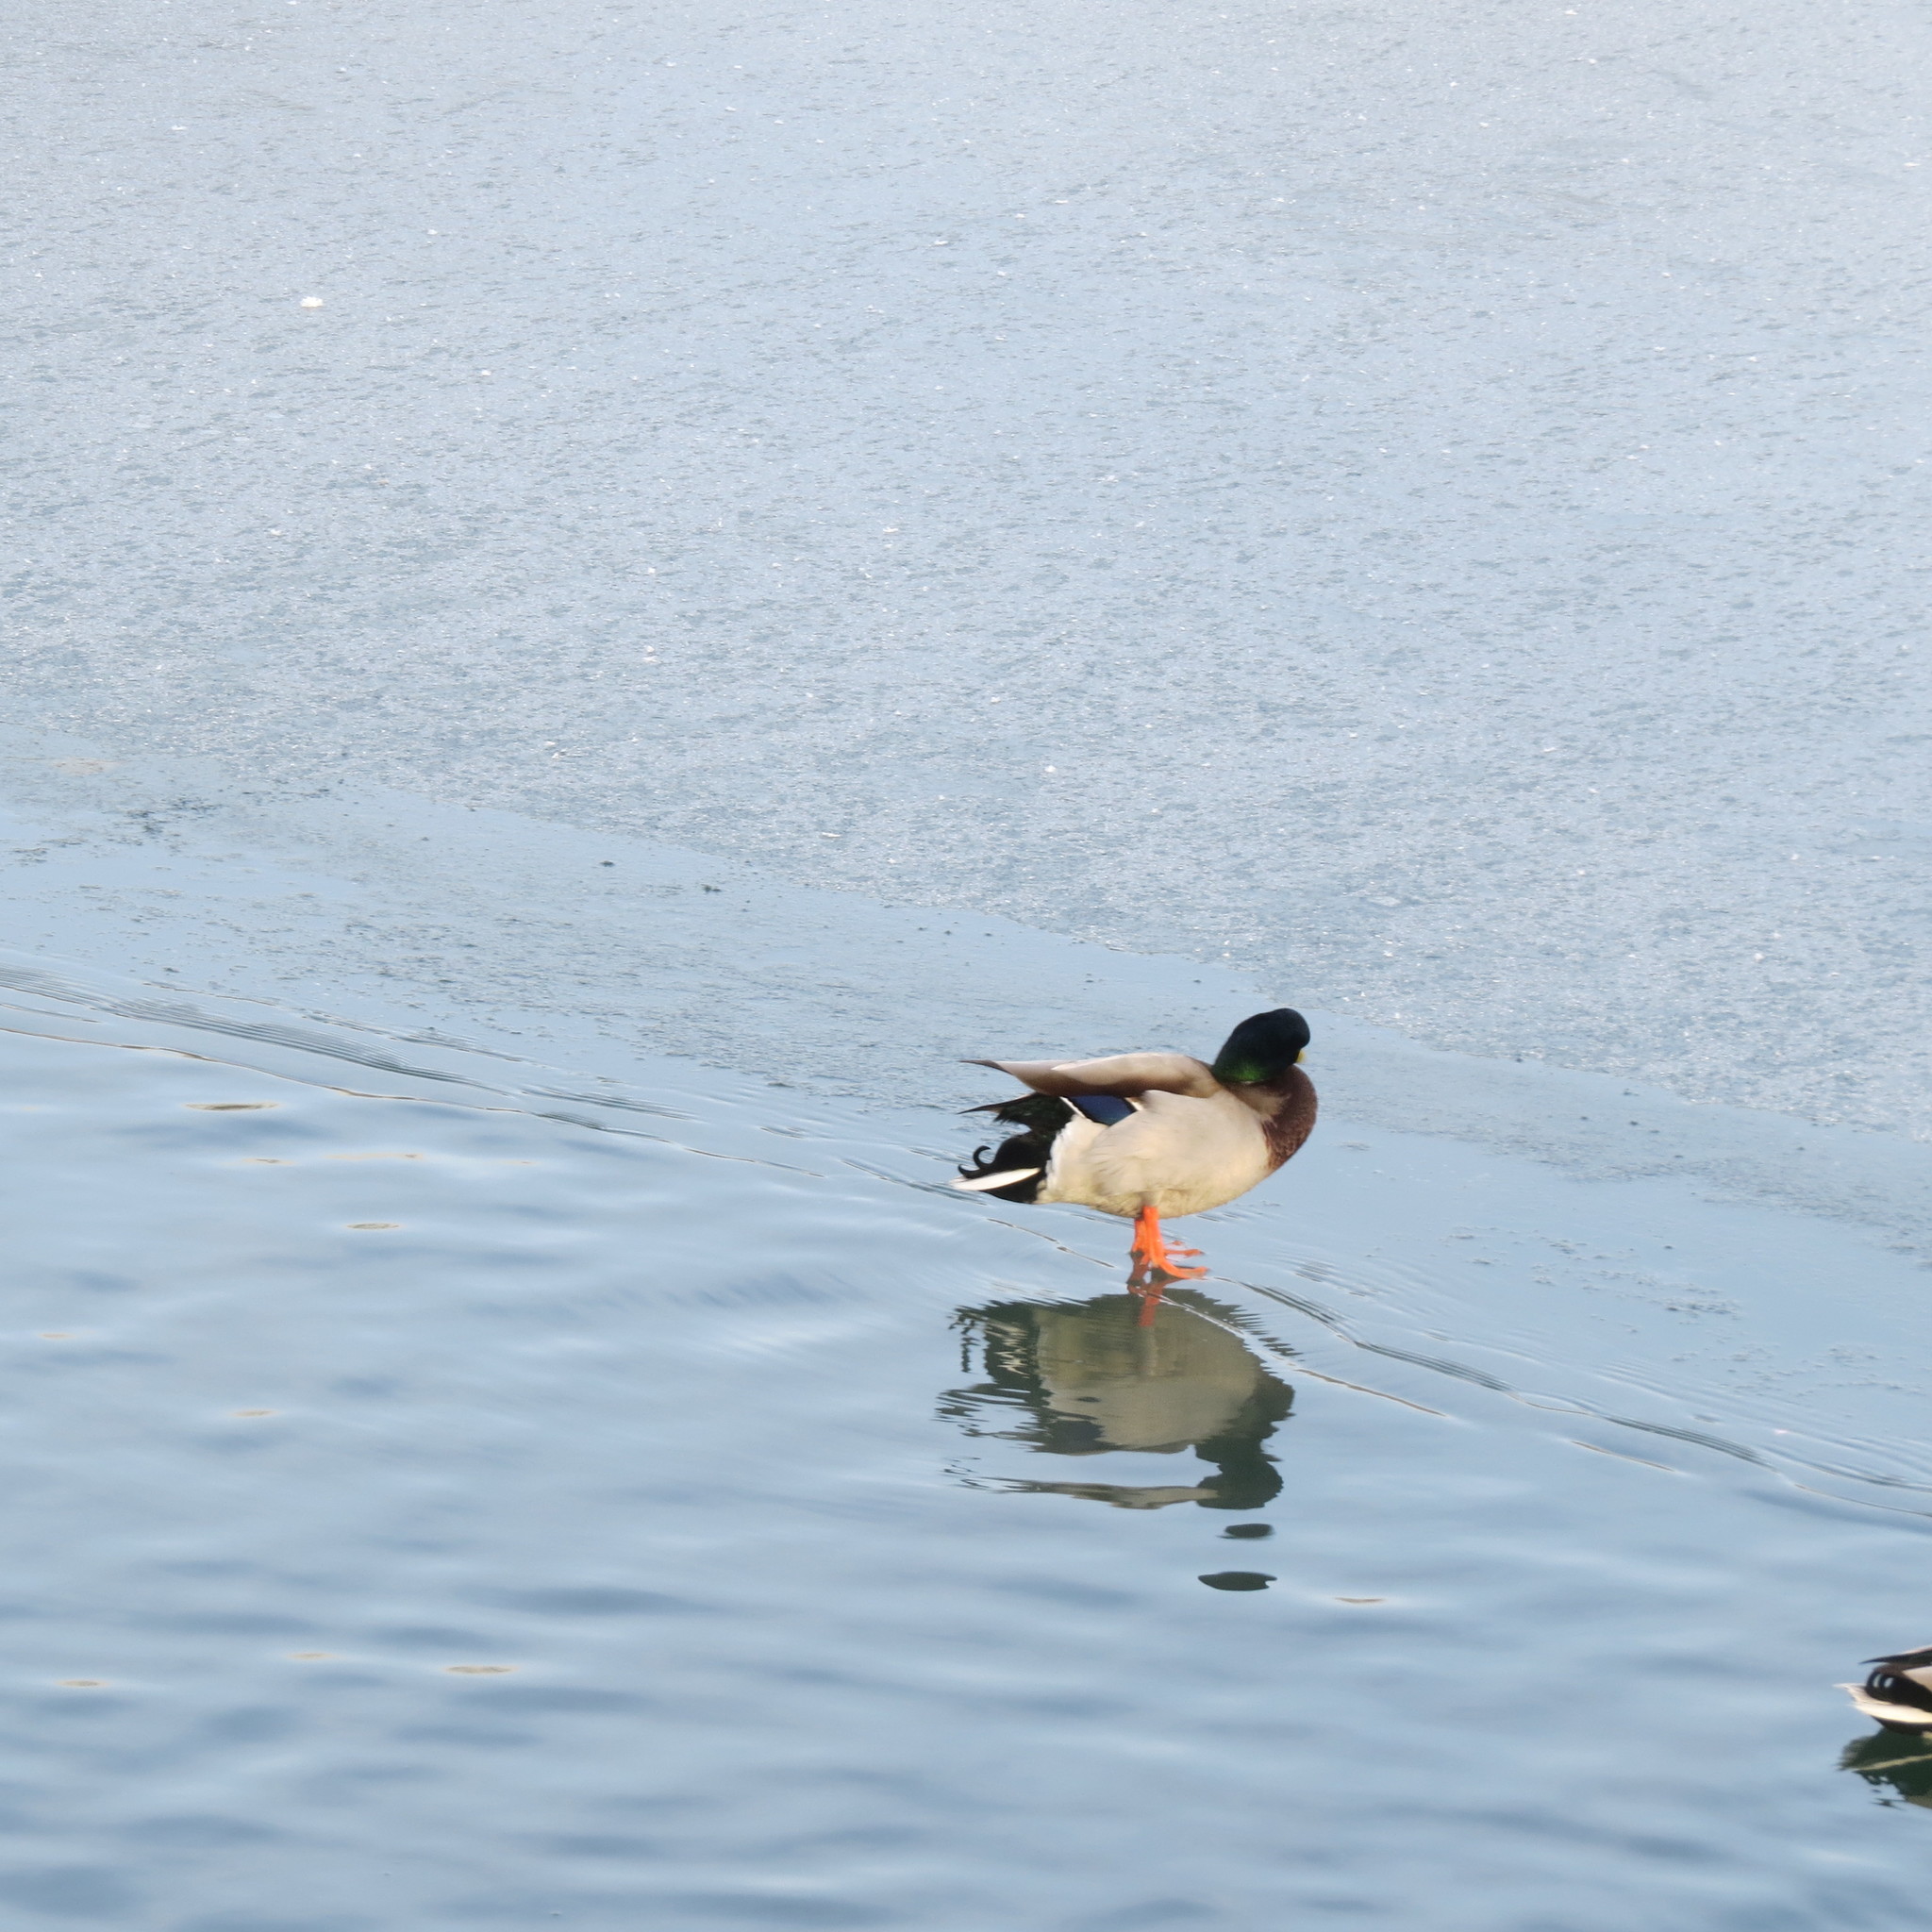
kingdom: Animalia
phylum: Chordata
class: Aves
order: Anseriformes
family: Anatidae
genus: Anas
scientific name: Anas platyrhynchos
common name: Mallard
